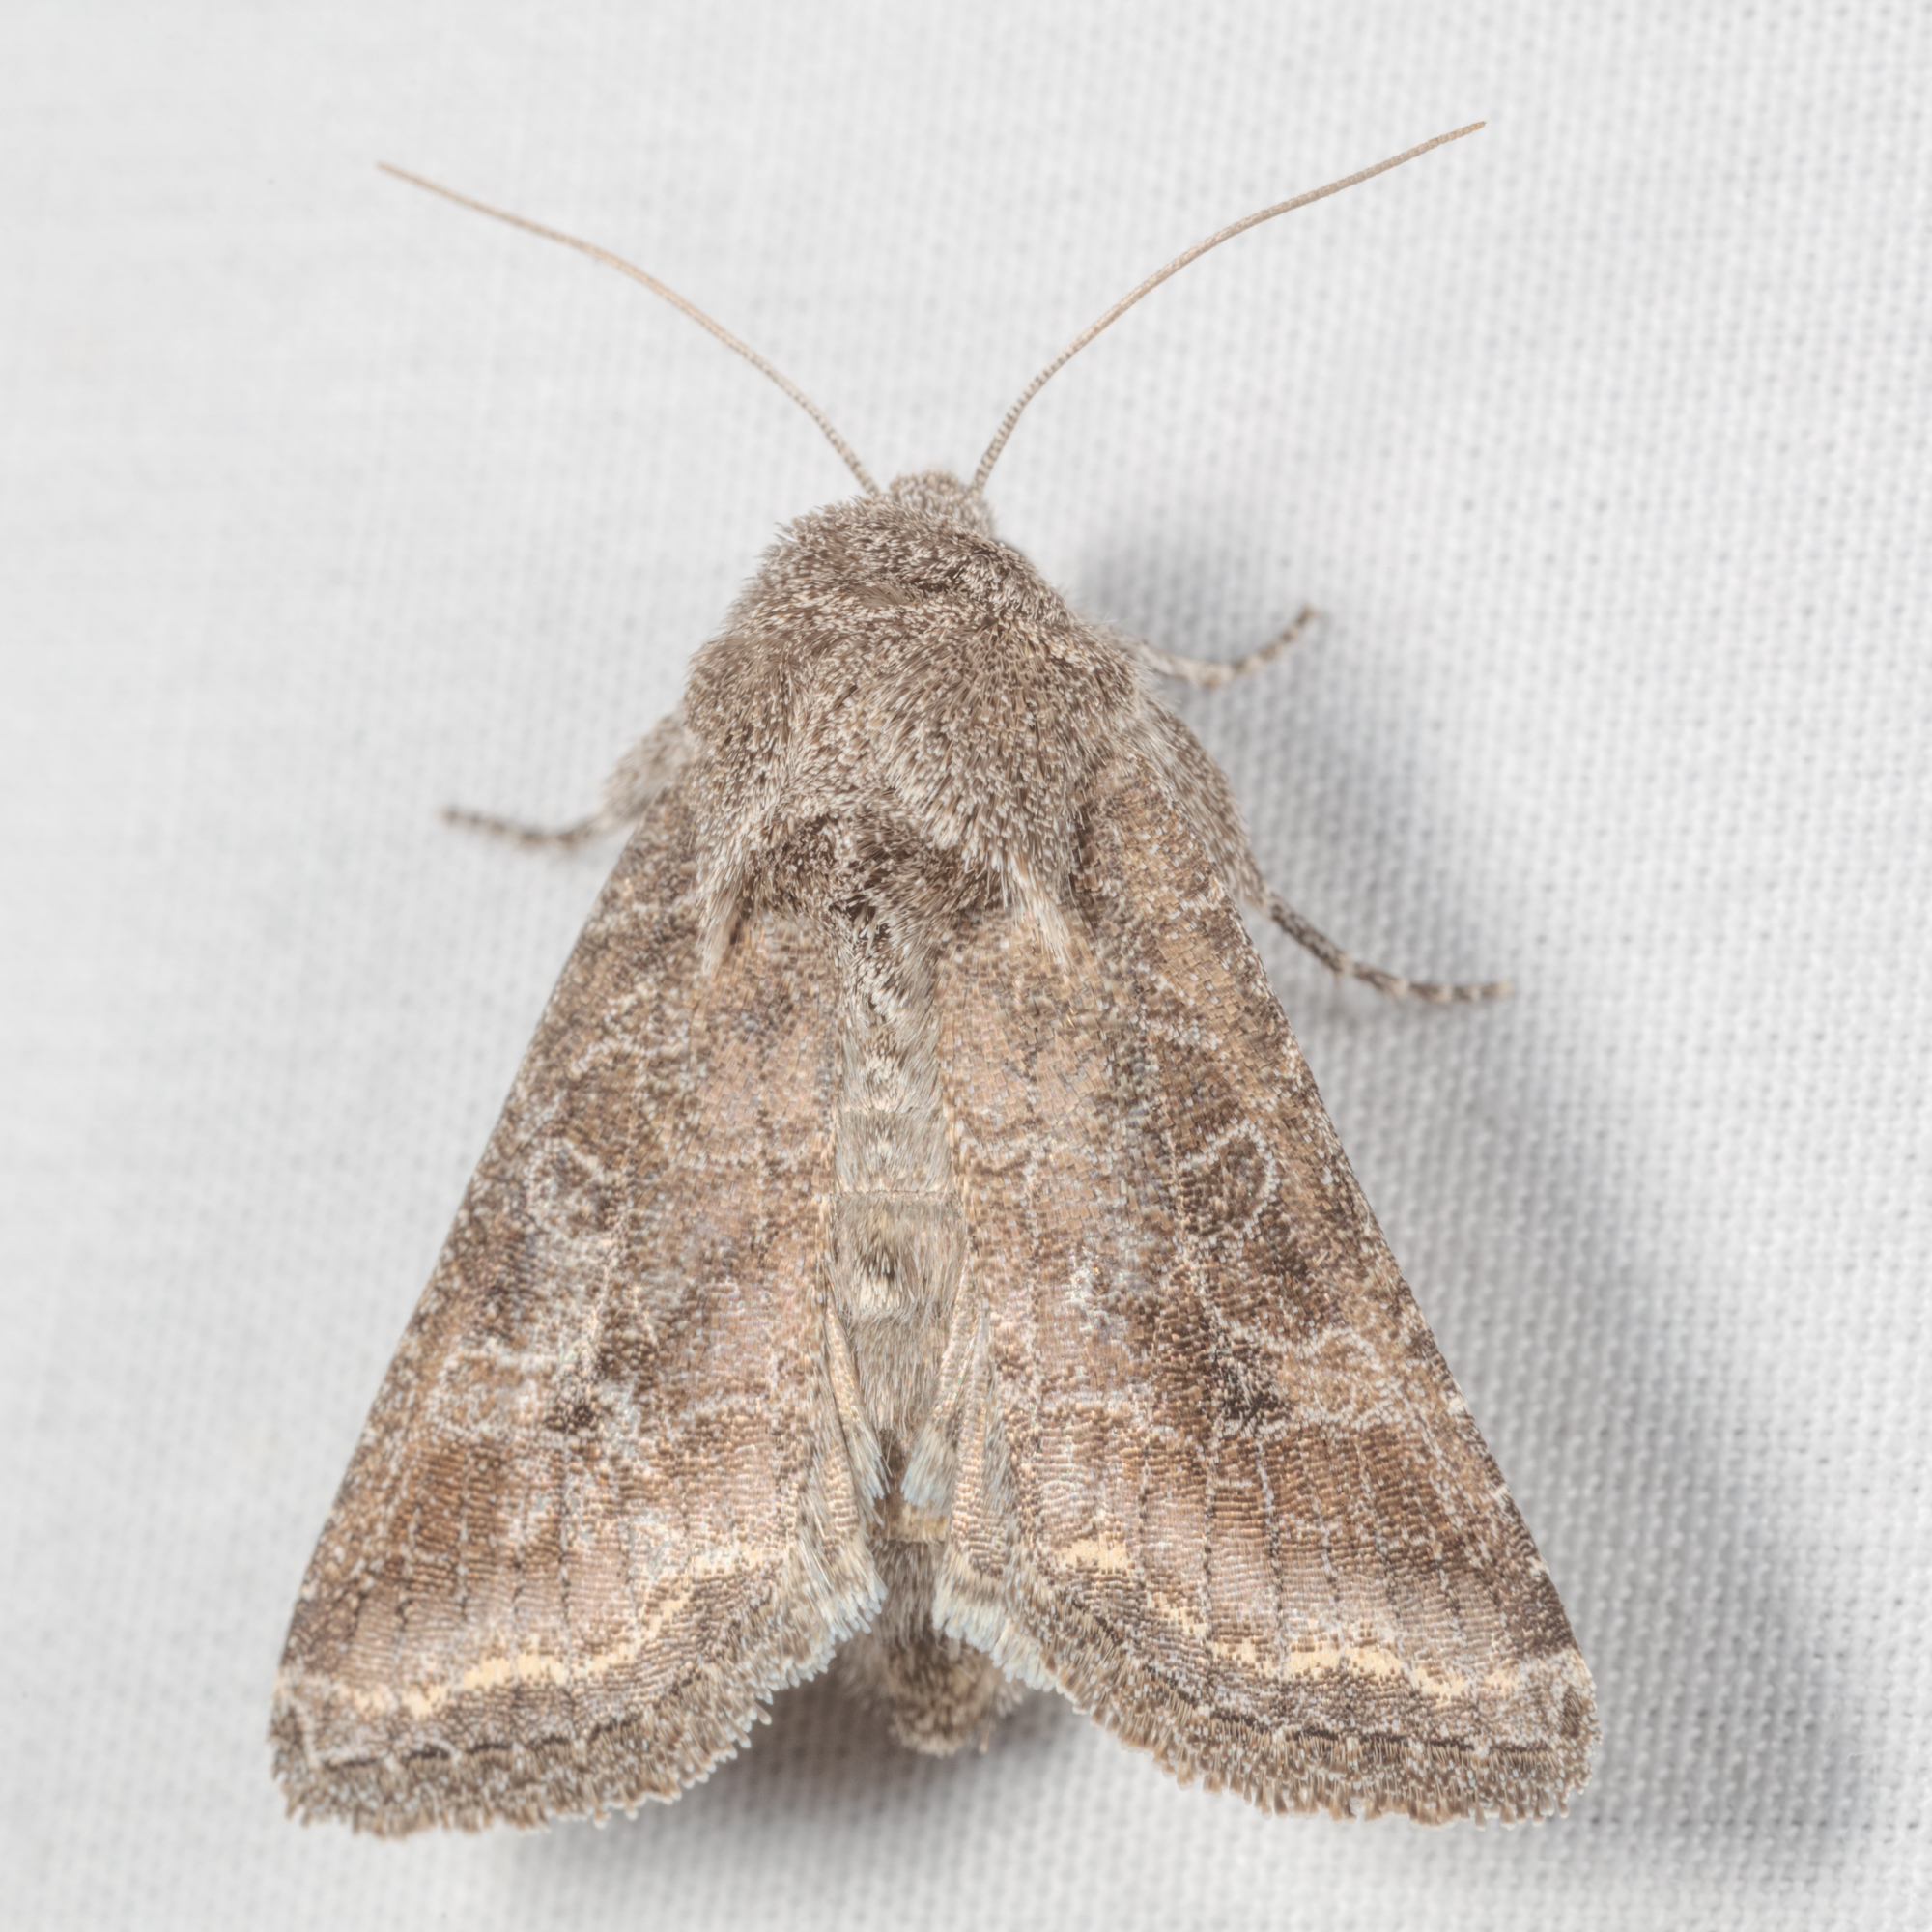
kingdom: Animalia
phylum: Arthropoda
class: Insecta
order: Lepidoptera
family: Noctuidae
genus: Lacinipolia
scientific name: Lacinipolia erecta
